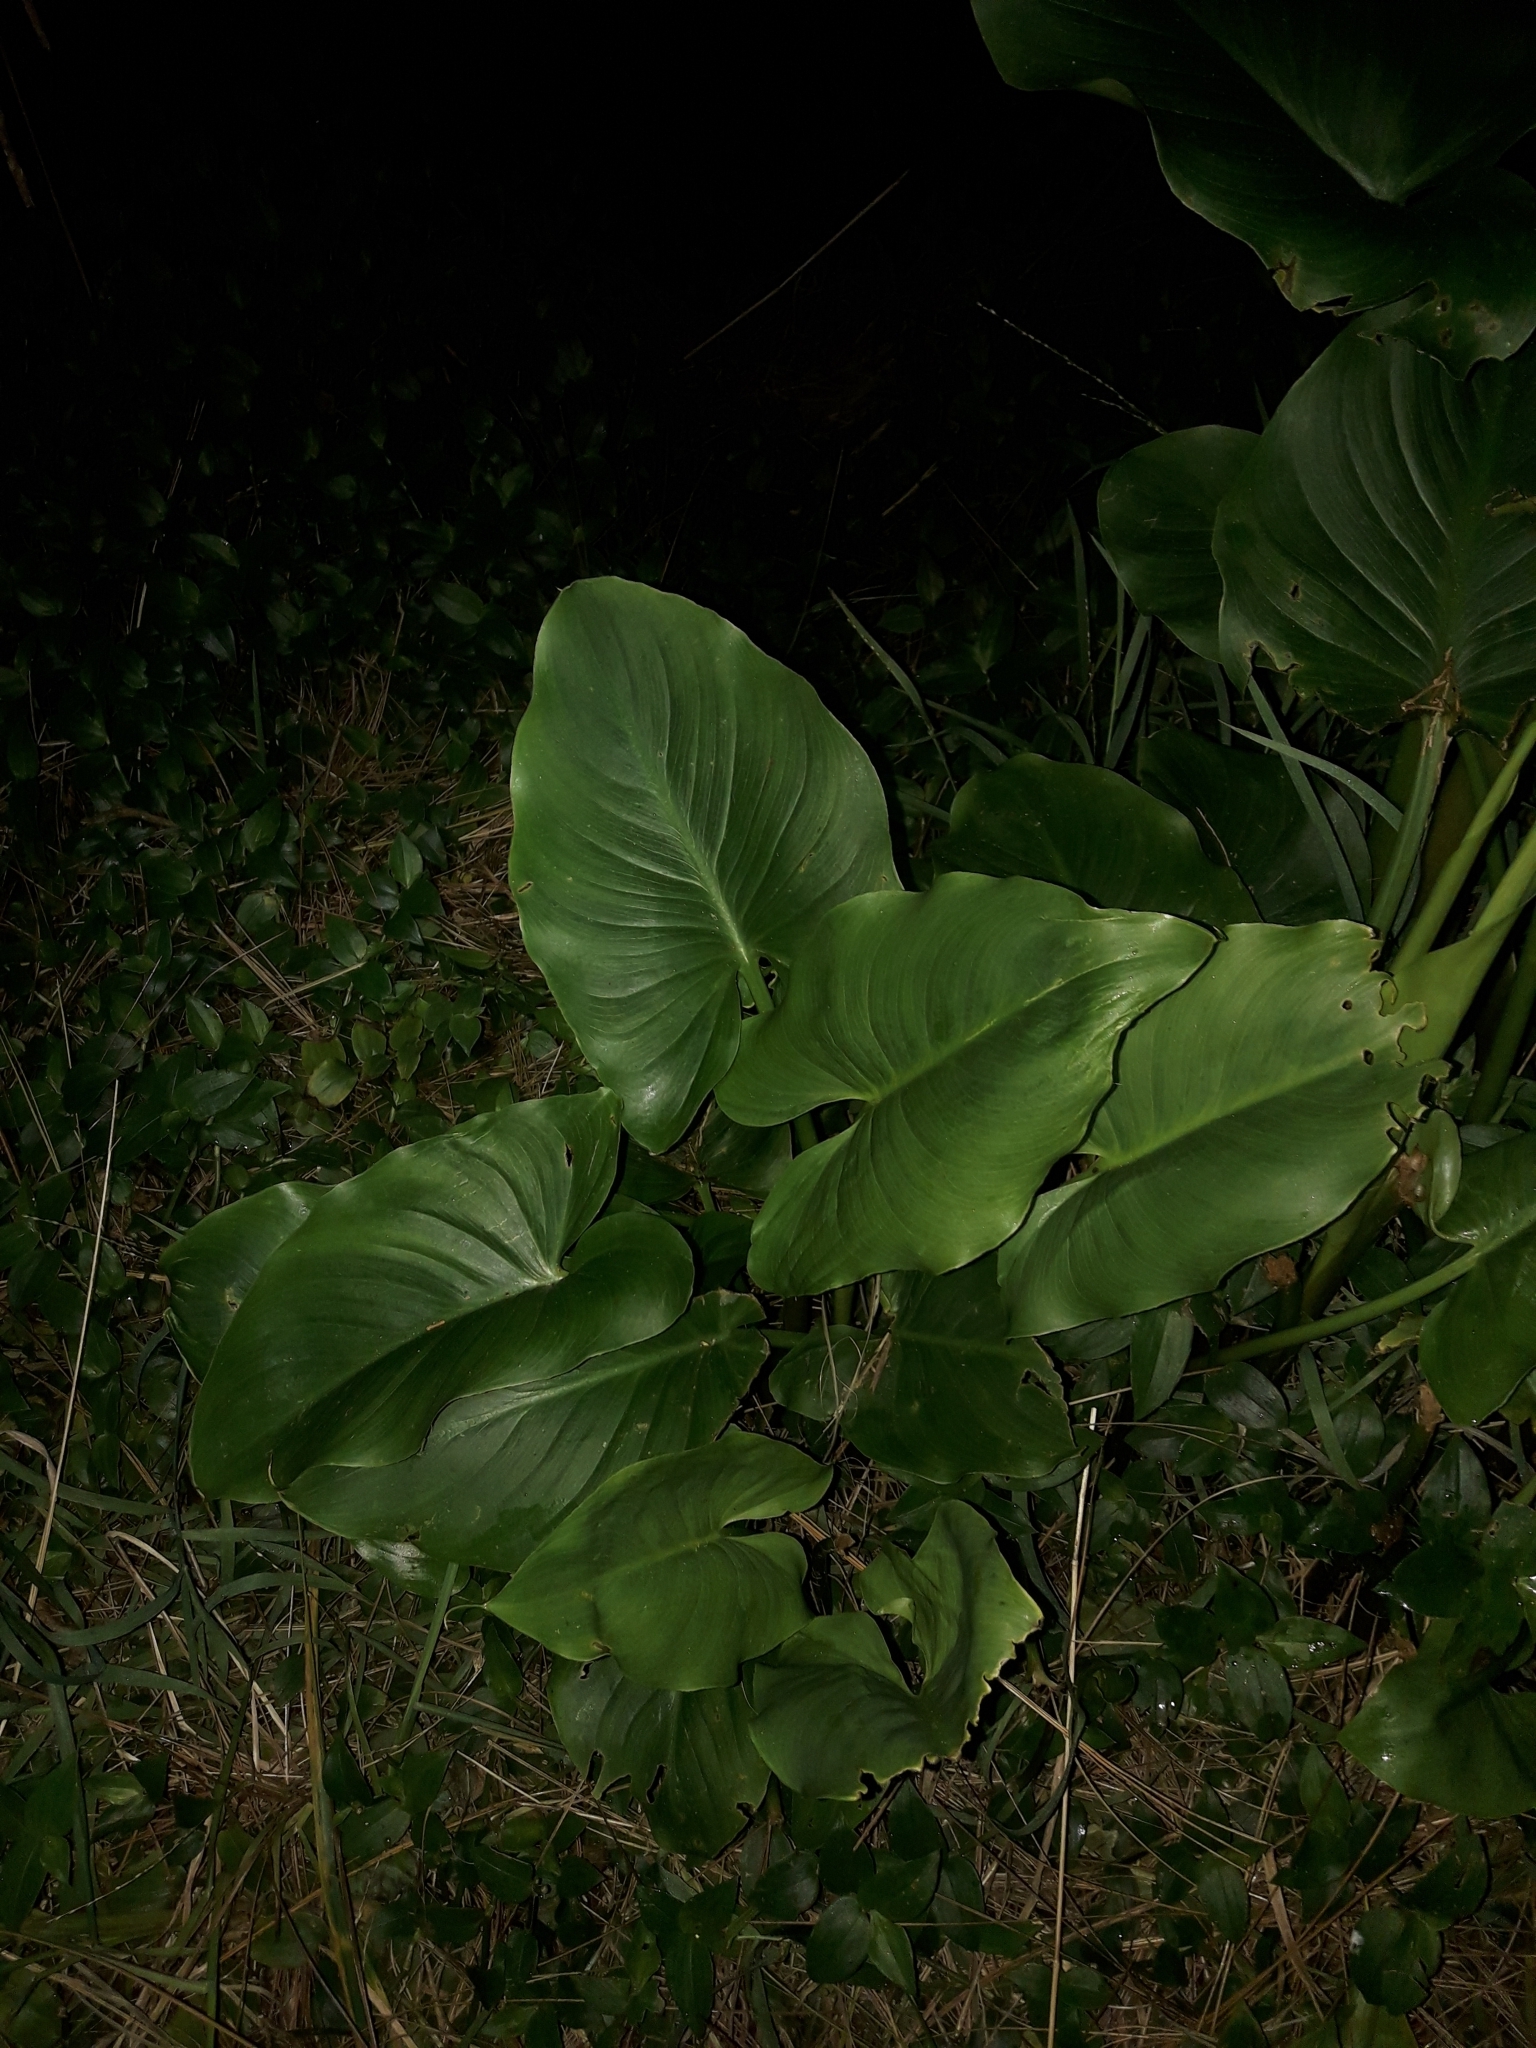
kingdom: Plantae
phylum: Tracheophyta
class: Liliopsida
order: Alismatales
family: Araceae
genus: Zantedeschia
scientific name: Zantedeschia aethiopica
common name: Altar-lily
